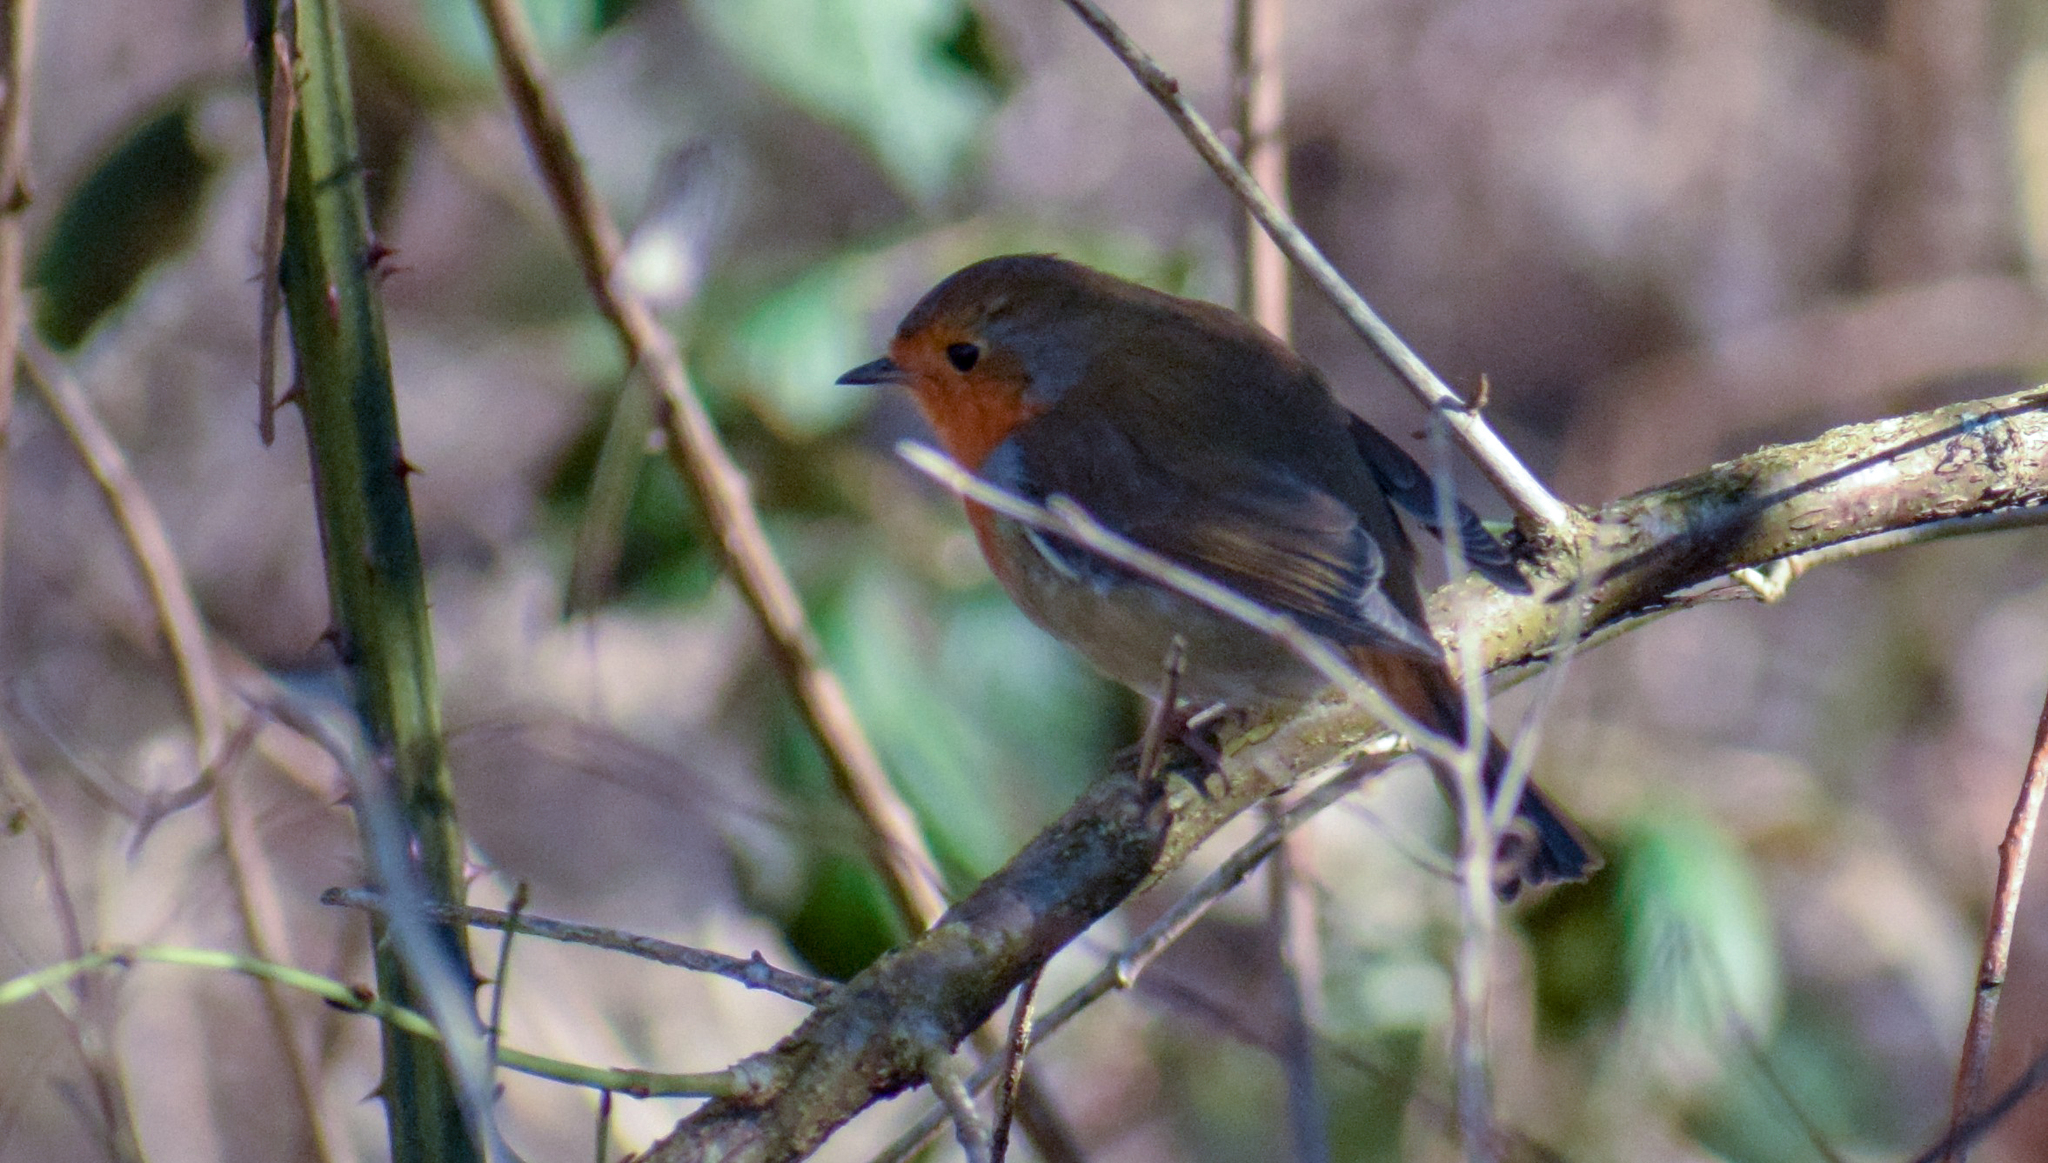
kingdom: Animalia
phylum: Chordata
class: Aves
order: Passeriformes
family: Muscicapidae
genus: Erithacus
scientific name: Erithacus rubecula
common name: European robin
